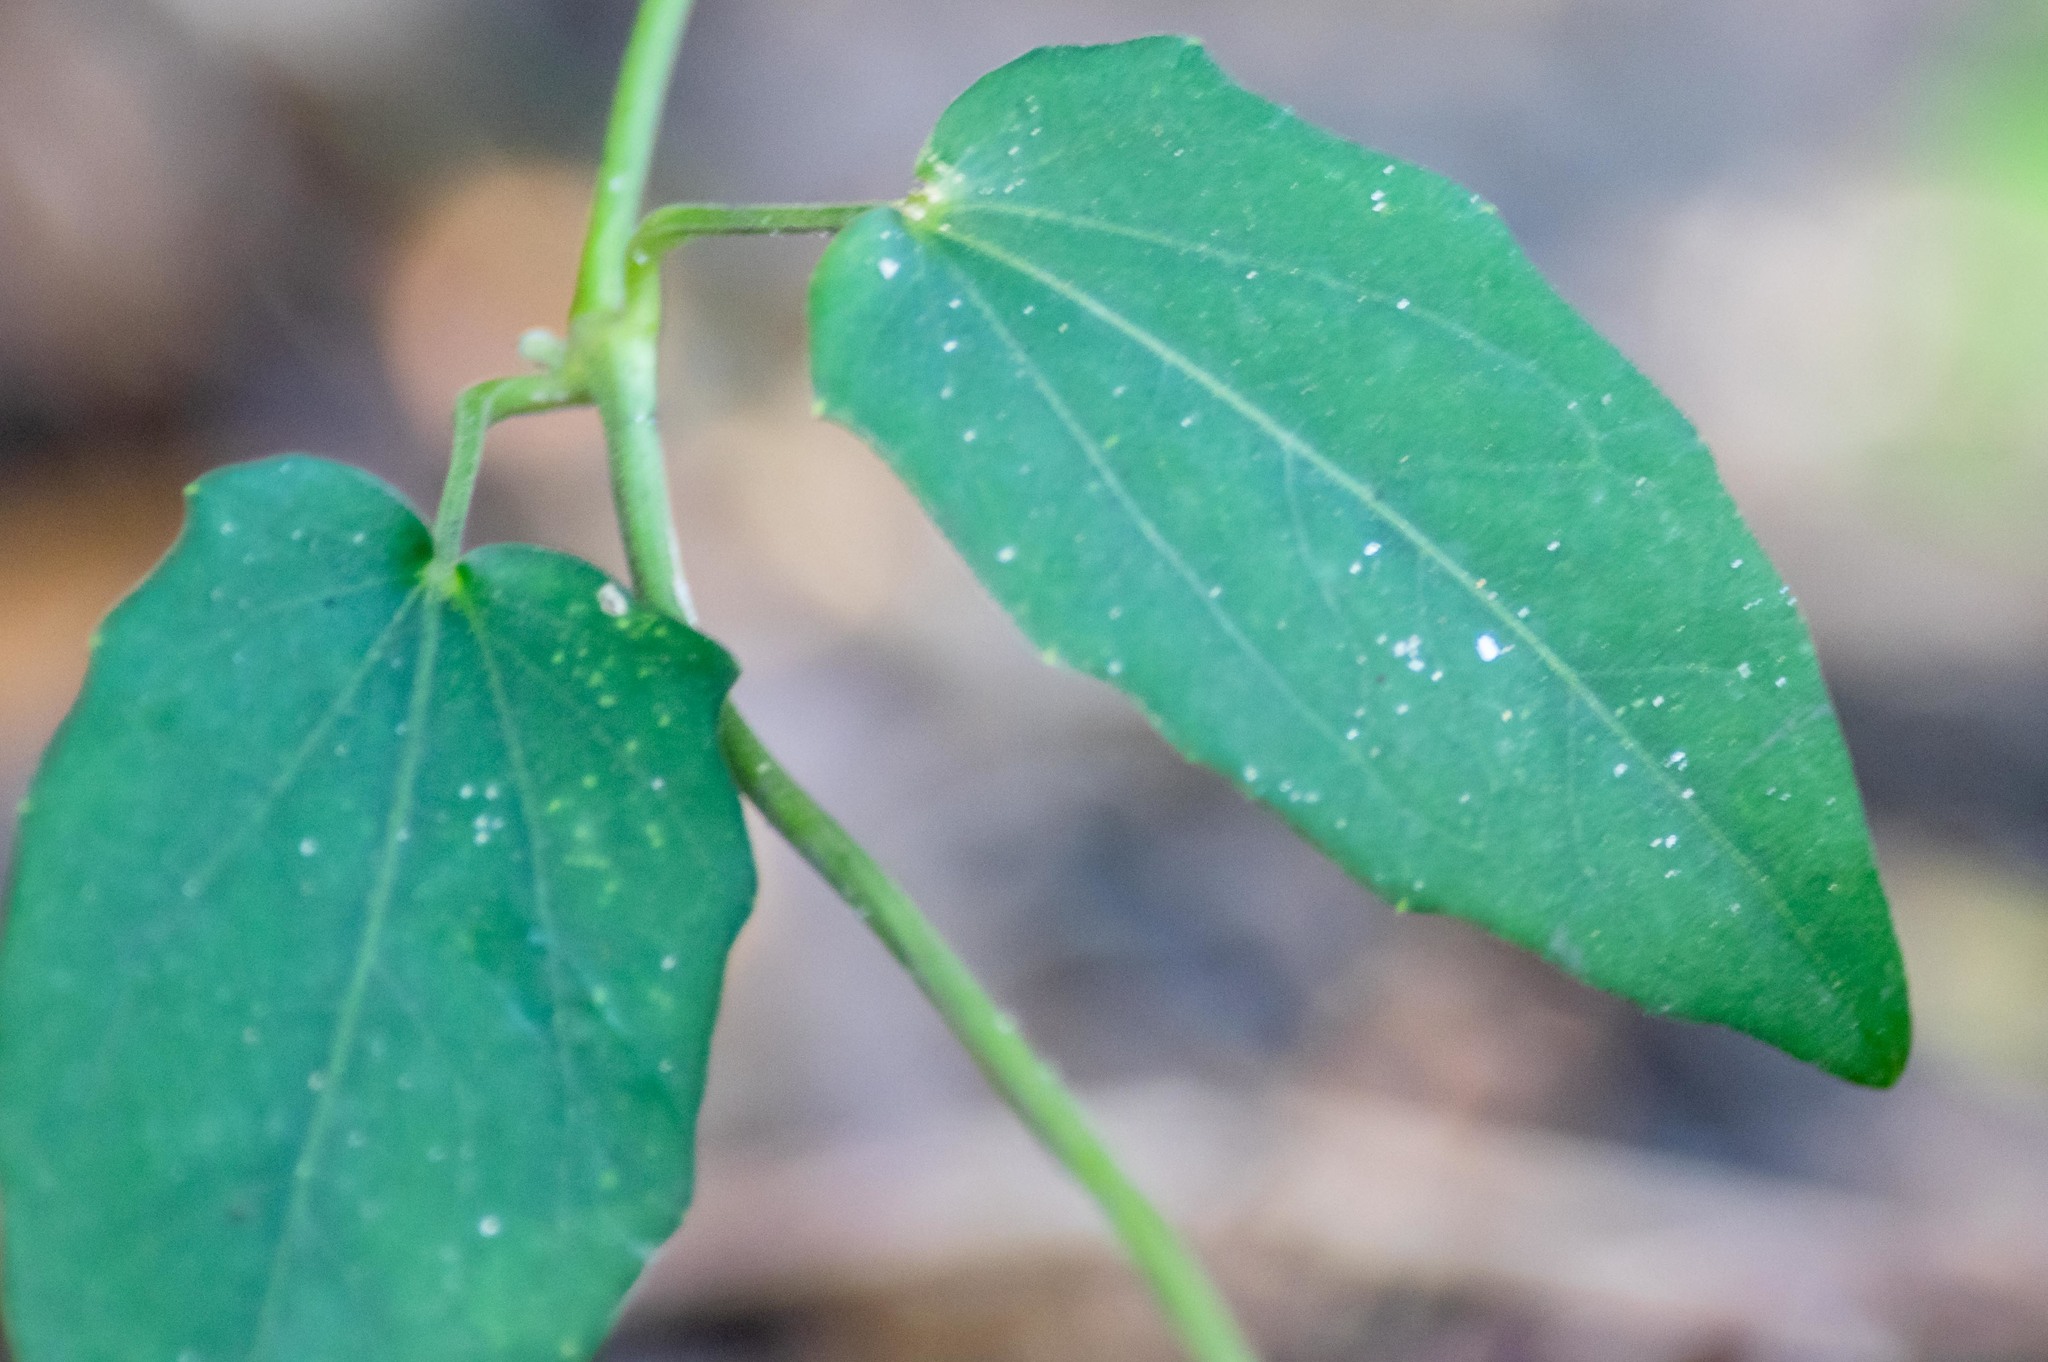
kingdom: Plantae
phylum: Tracheophyta
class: Magnoliopsida
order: Lamiales
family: Acanthaceae
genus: Thunbergia
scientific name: Thunbergia fragrans
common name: Whitelady
